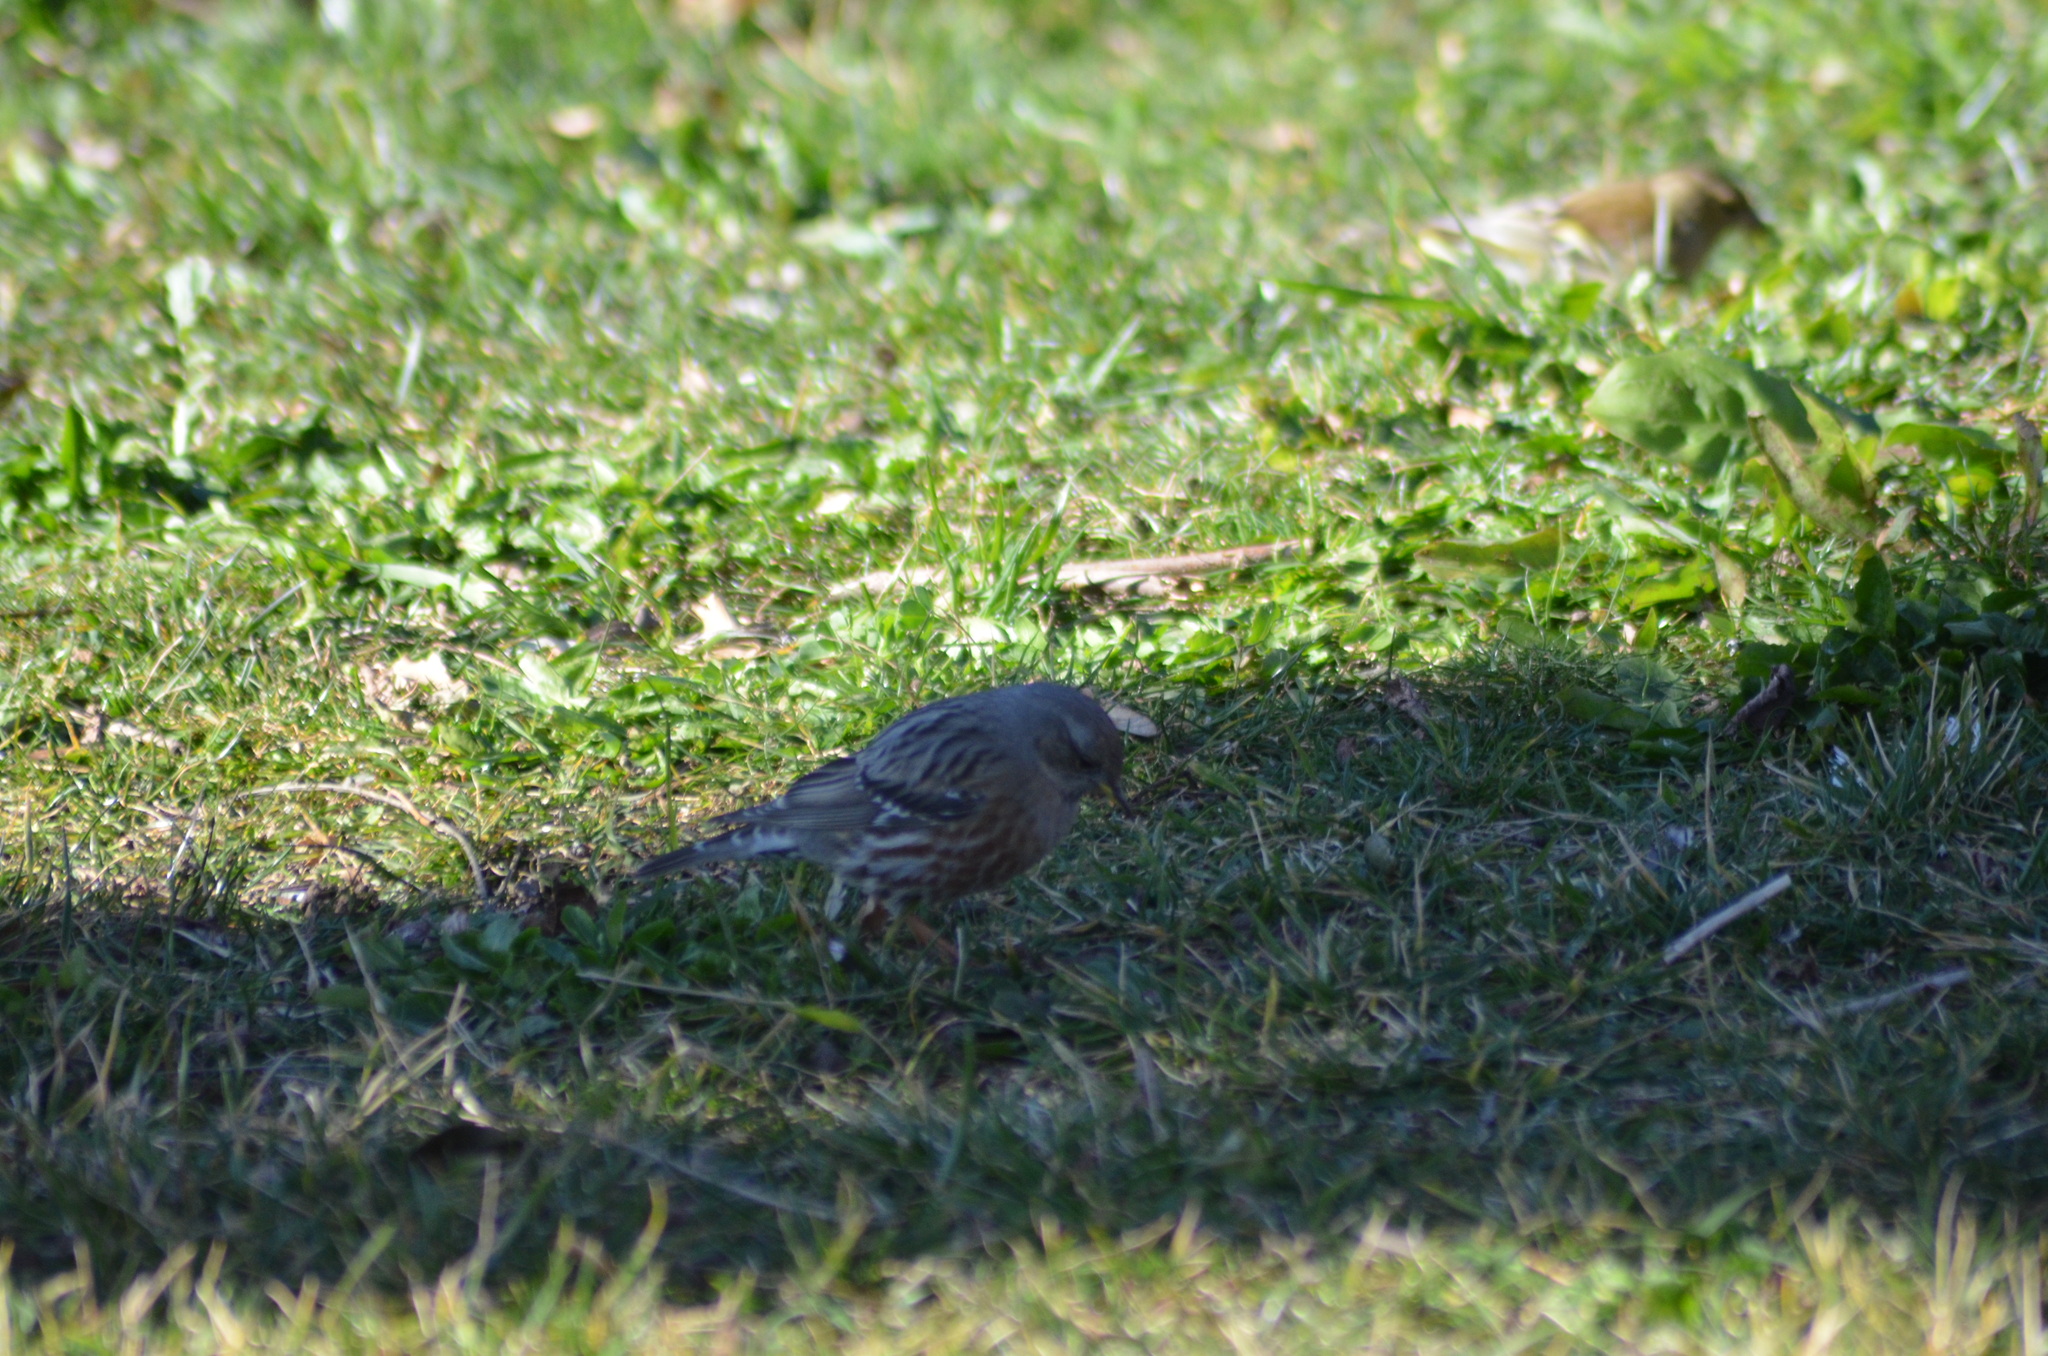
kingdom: Animalia
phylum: Chordata
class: Aves
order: Passeriformes
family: Prunellidae
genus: Prunella
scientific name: Prunella collaris
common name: Alpine accentor
